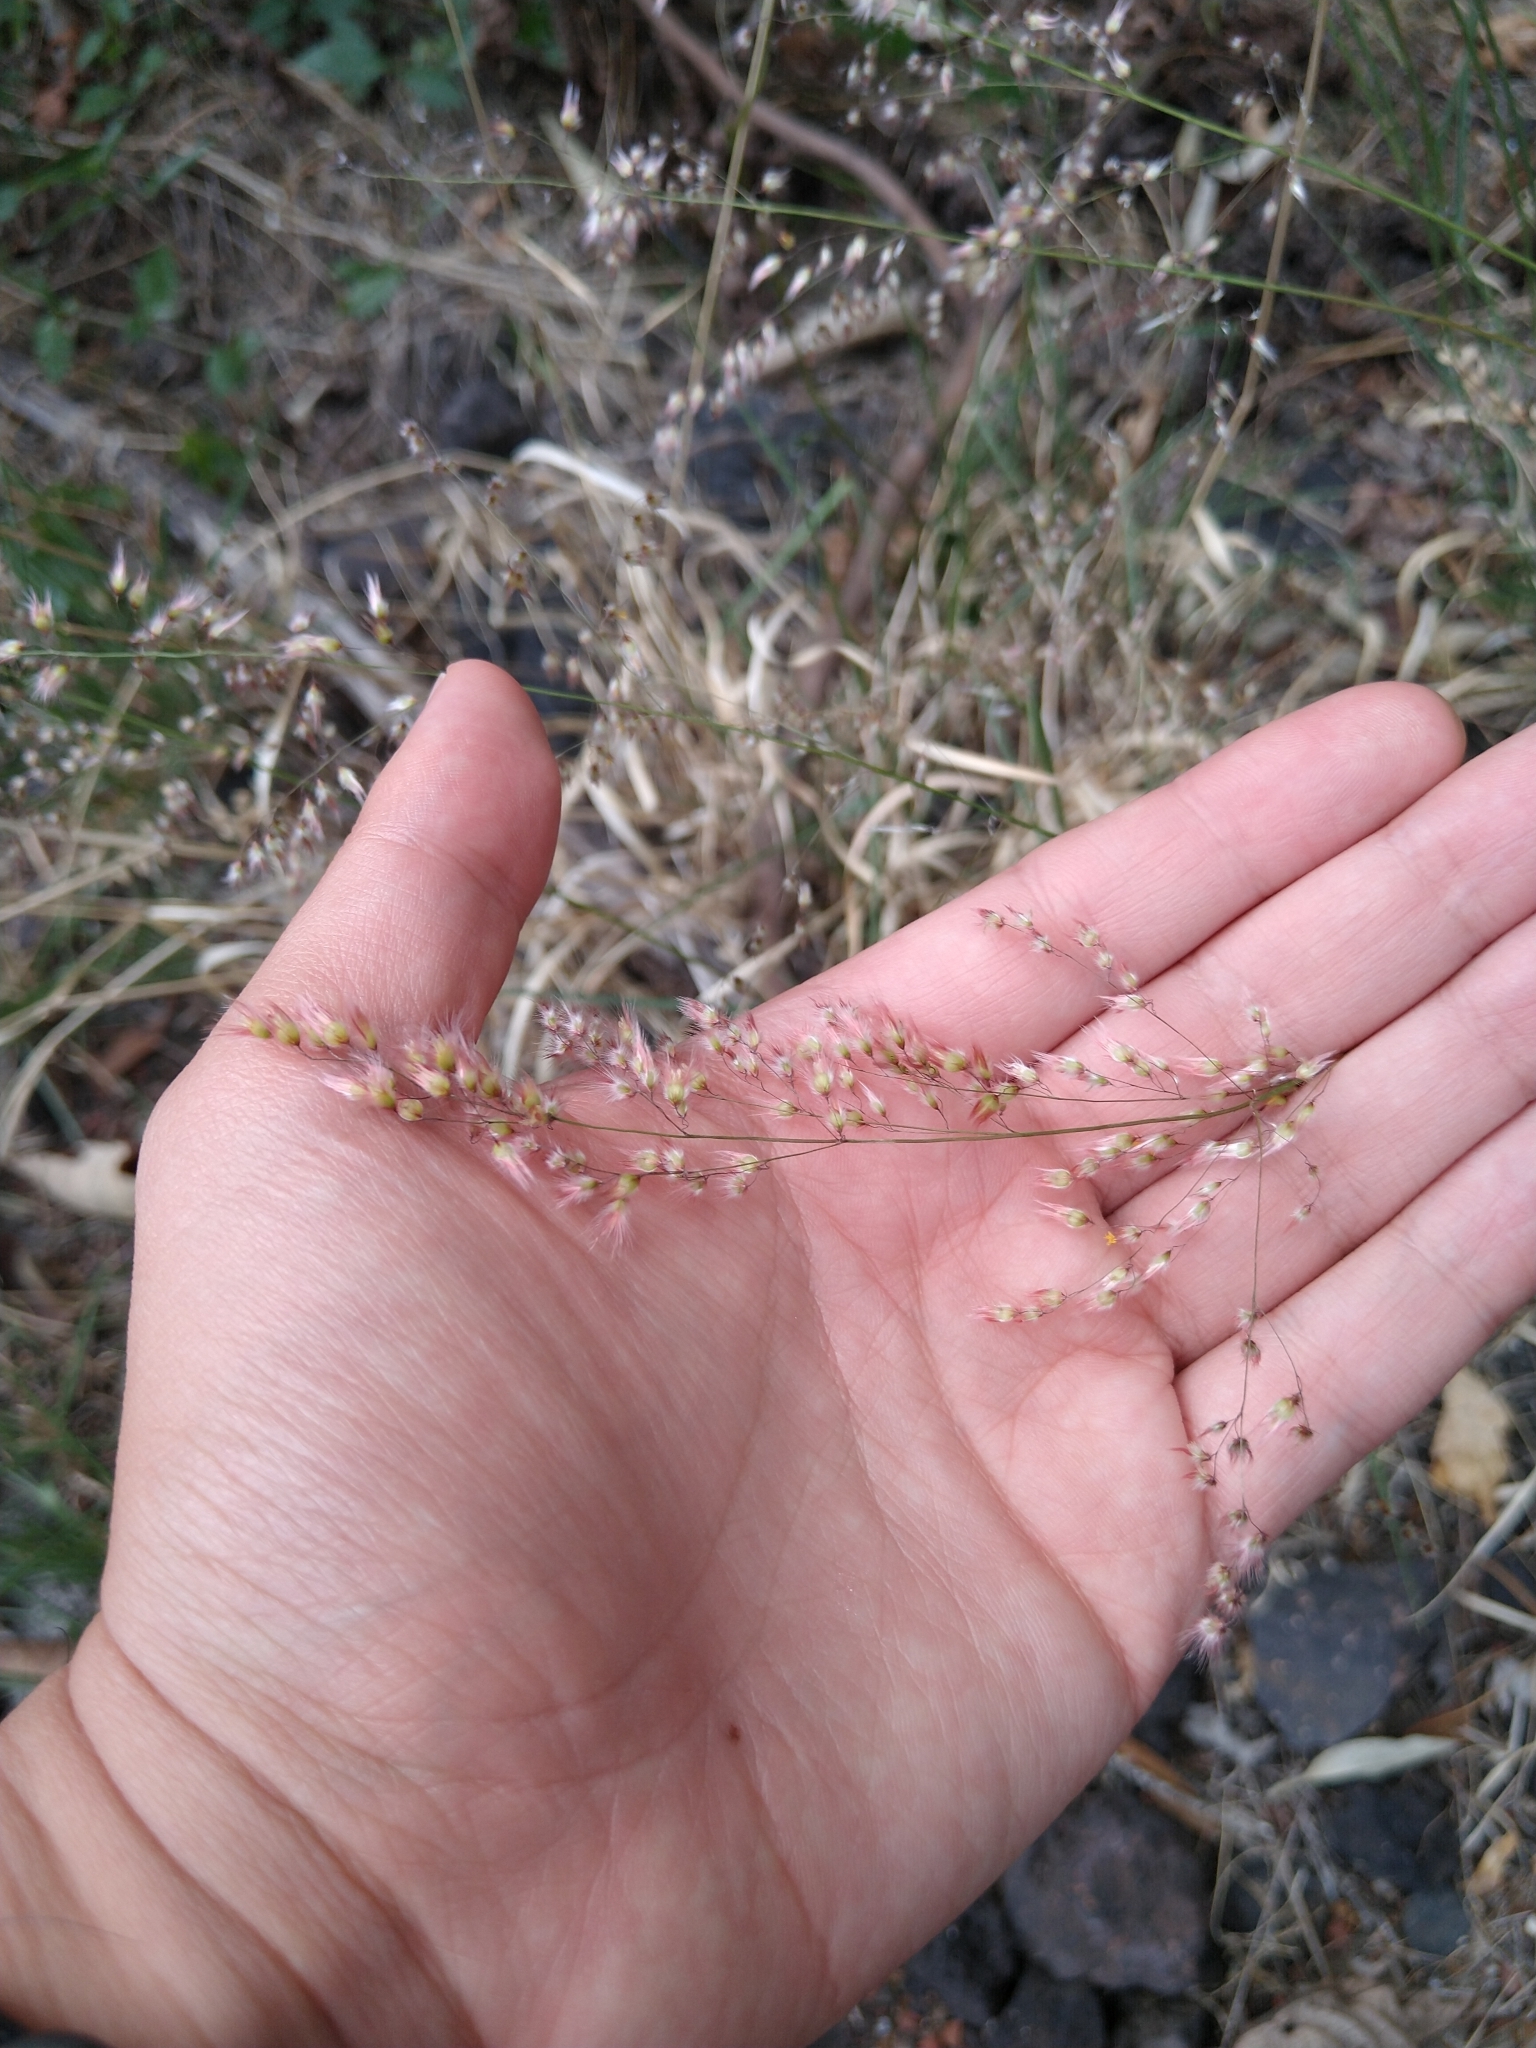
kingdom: Plantae
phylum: Tracheophyta
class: Liliopsida
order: Poales
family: Poaceae
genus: Melinis
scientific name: Melinis repens
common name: Rose natal grass
